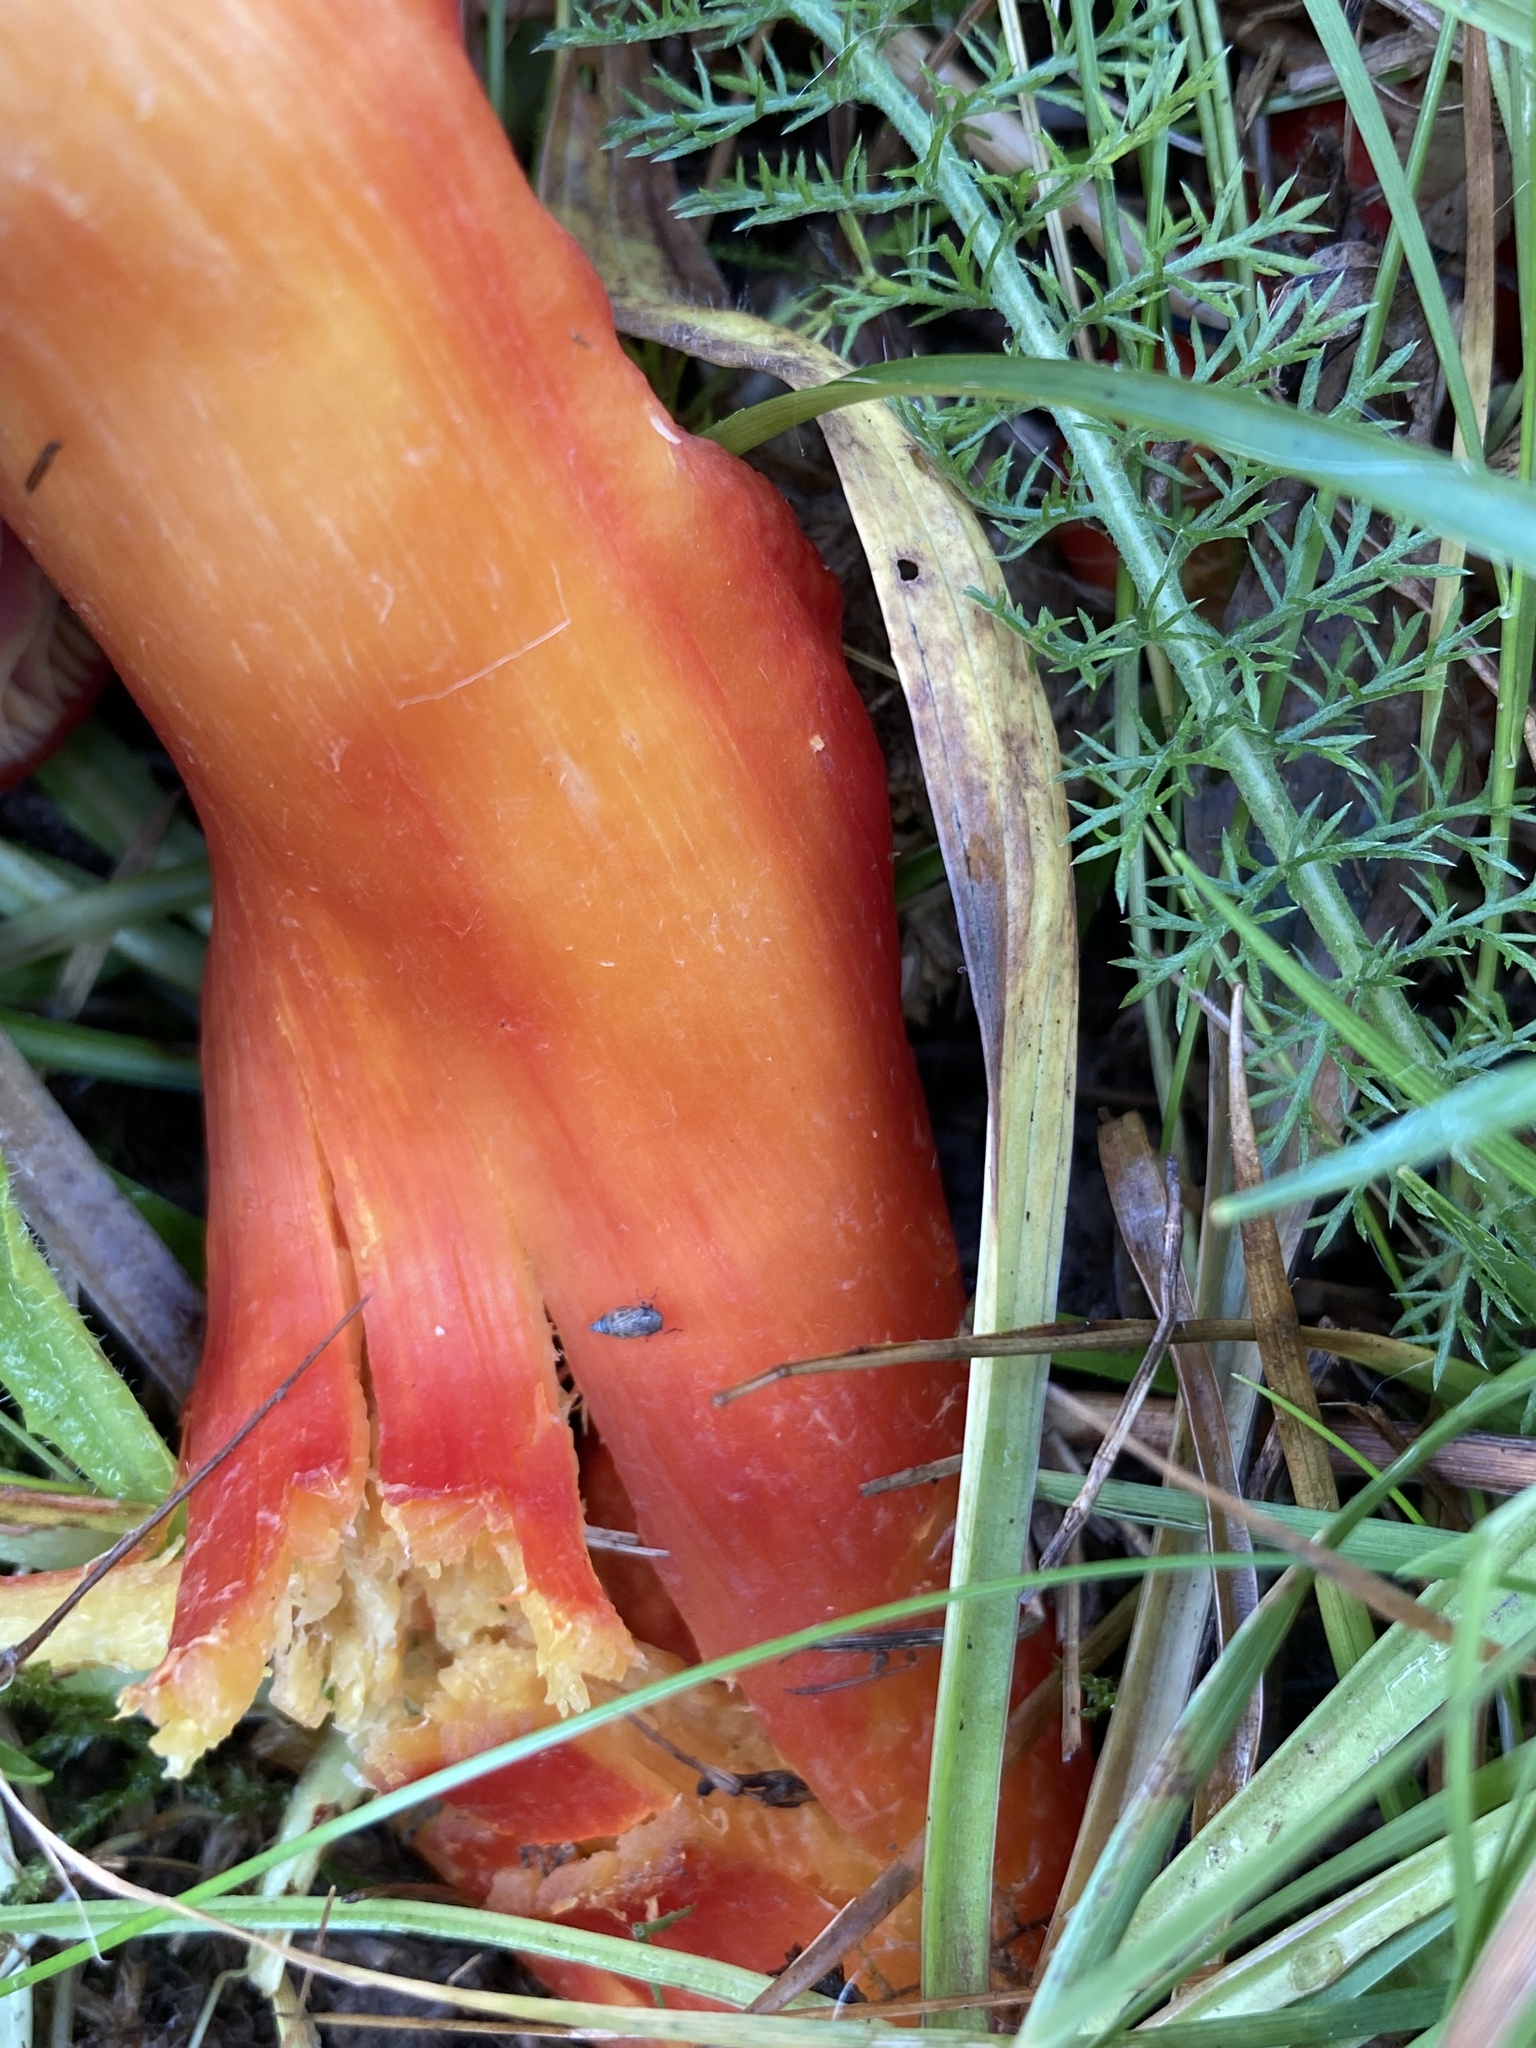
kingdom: Fungi
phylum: Basidiomycota
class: Agaricomycetes
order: Agaricales
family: Hygrophoraceae
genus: Hygrocybe
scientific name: Hygrocybe punicea
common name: Crimson waxcap
